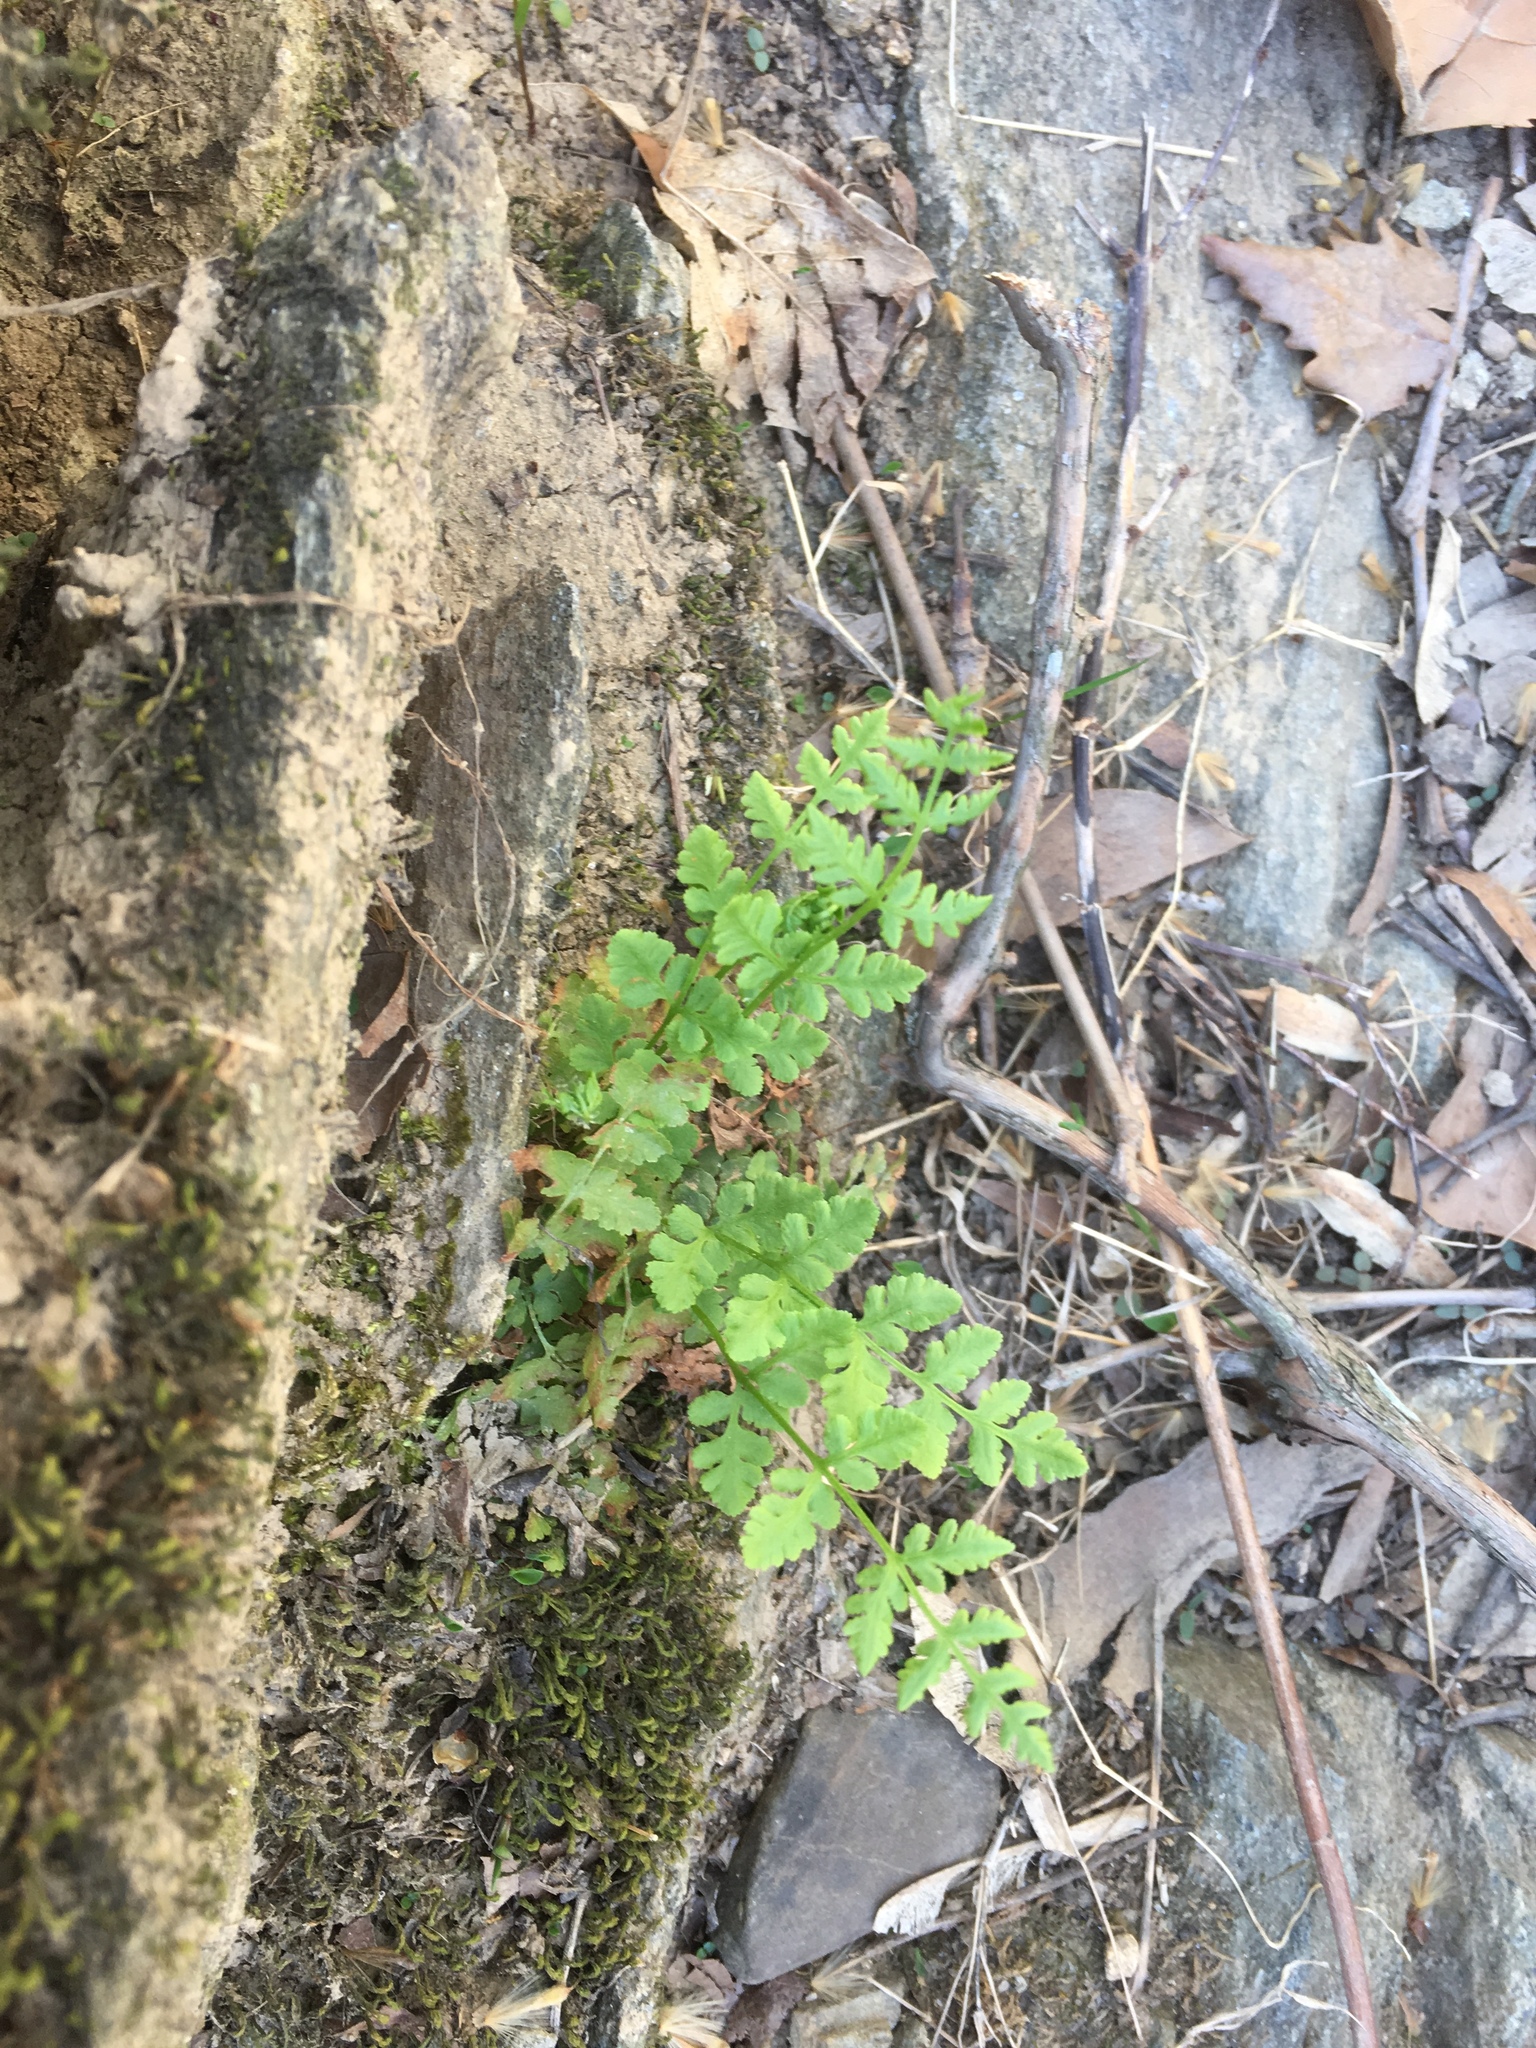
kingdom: Plantae
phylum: Tracheophyta
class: Polypodiopsida
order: Polypodiales
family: Woodsiaceae
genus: Physematium
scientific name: Physematium obtusum
